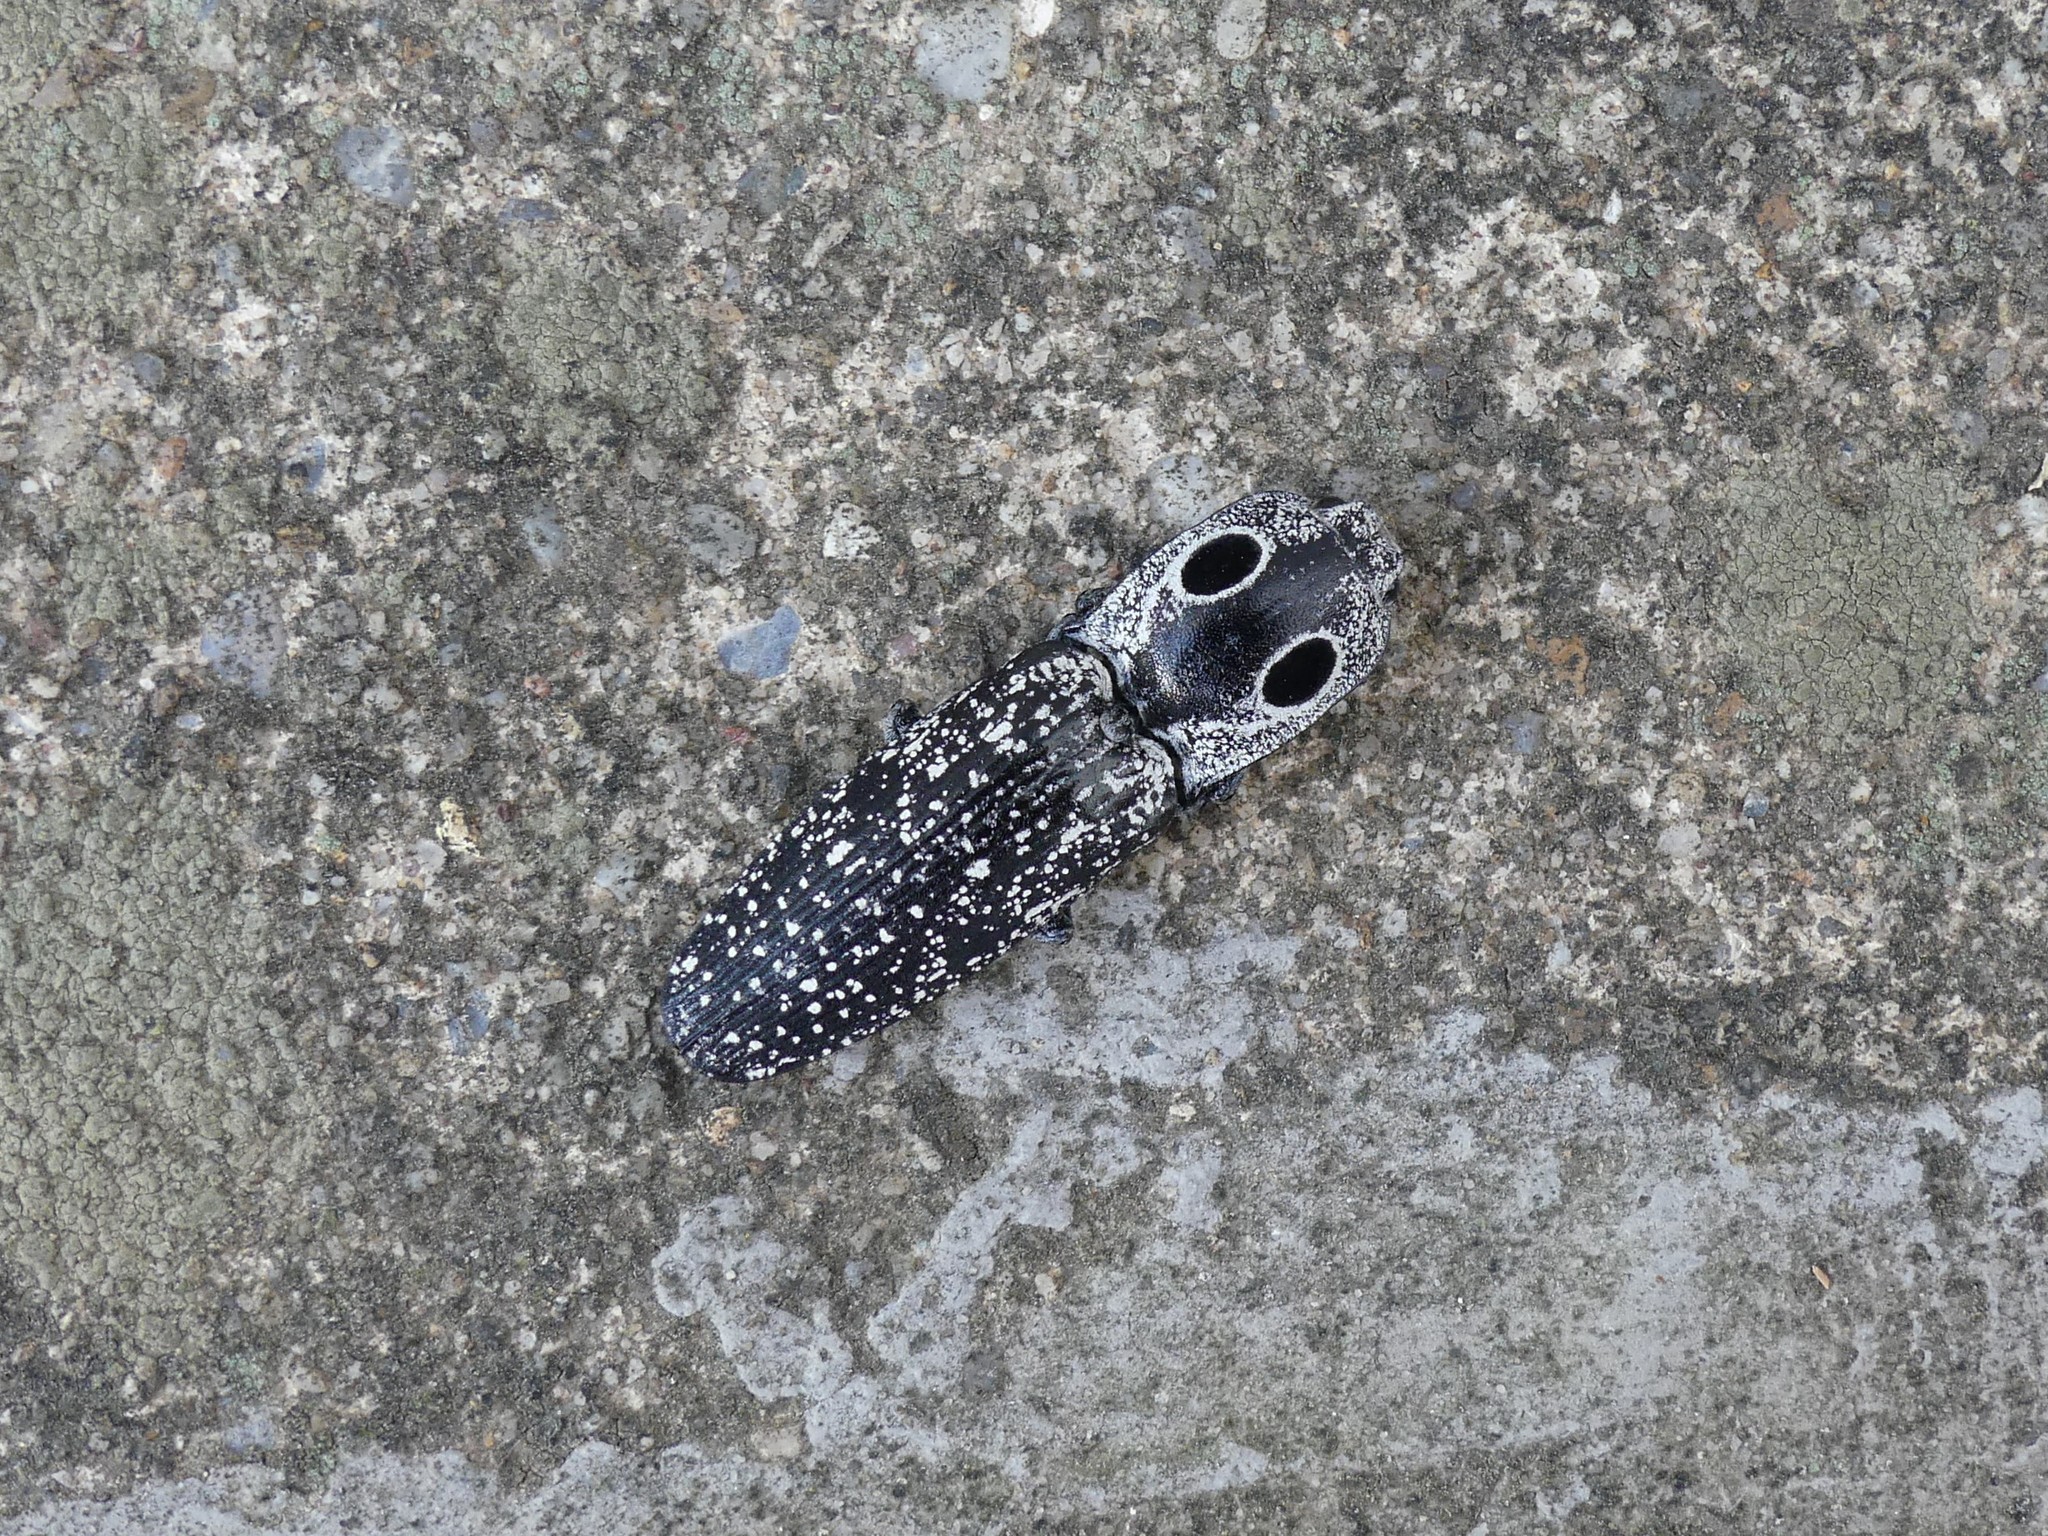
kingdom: Animalia
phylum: Arthropoda
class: Insecta
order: Coleoptera
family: Elateridae
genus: Alaus
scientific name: Alaus oculatus
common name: Eastern eyed click beetle
